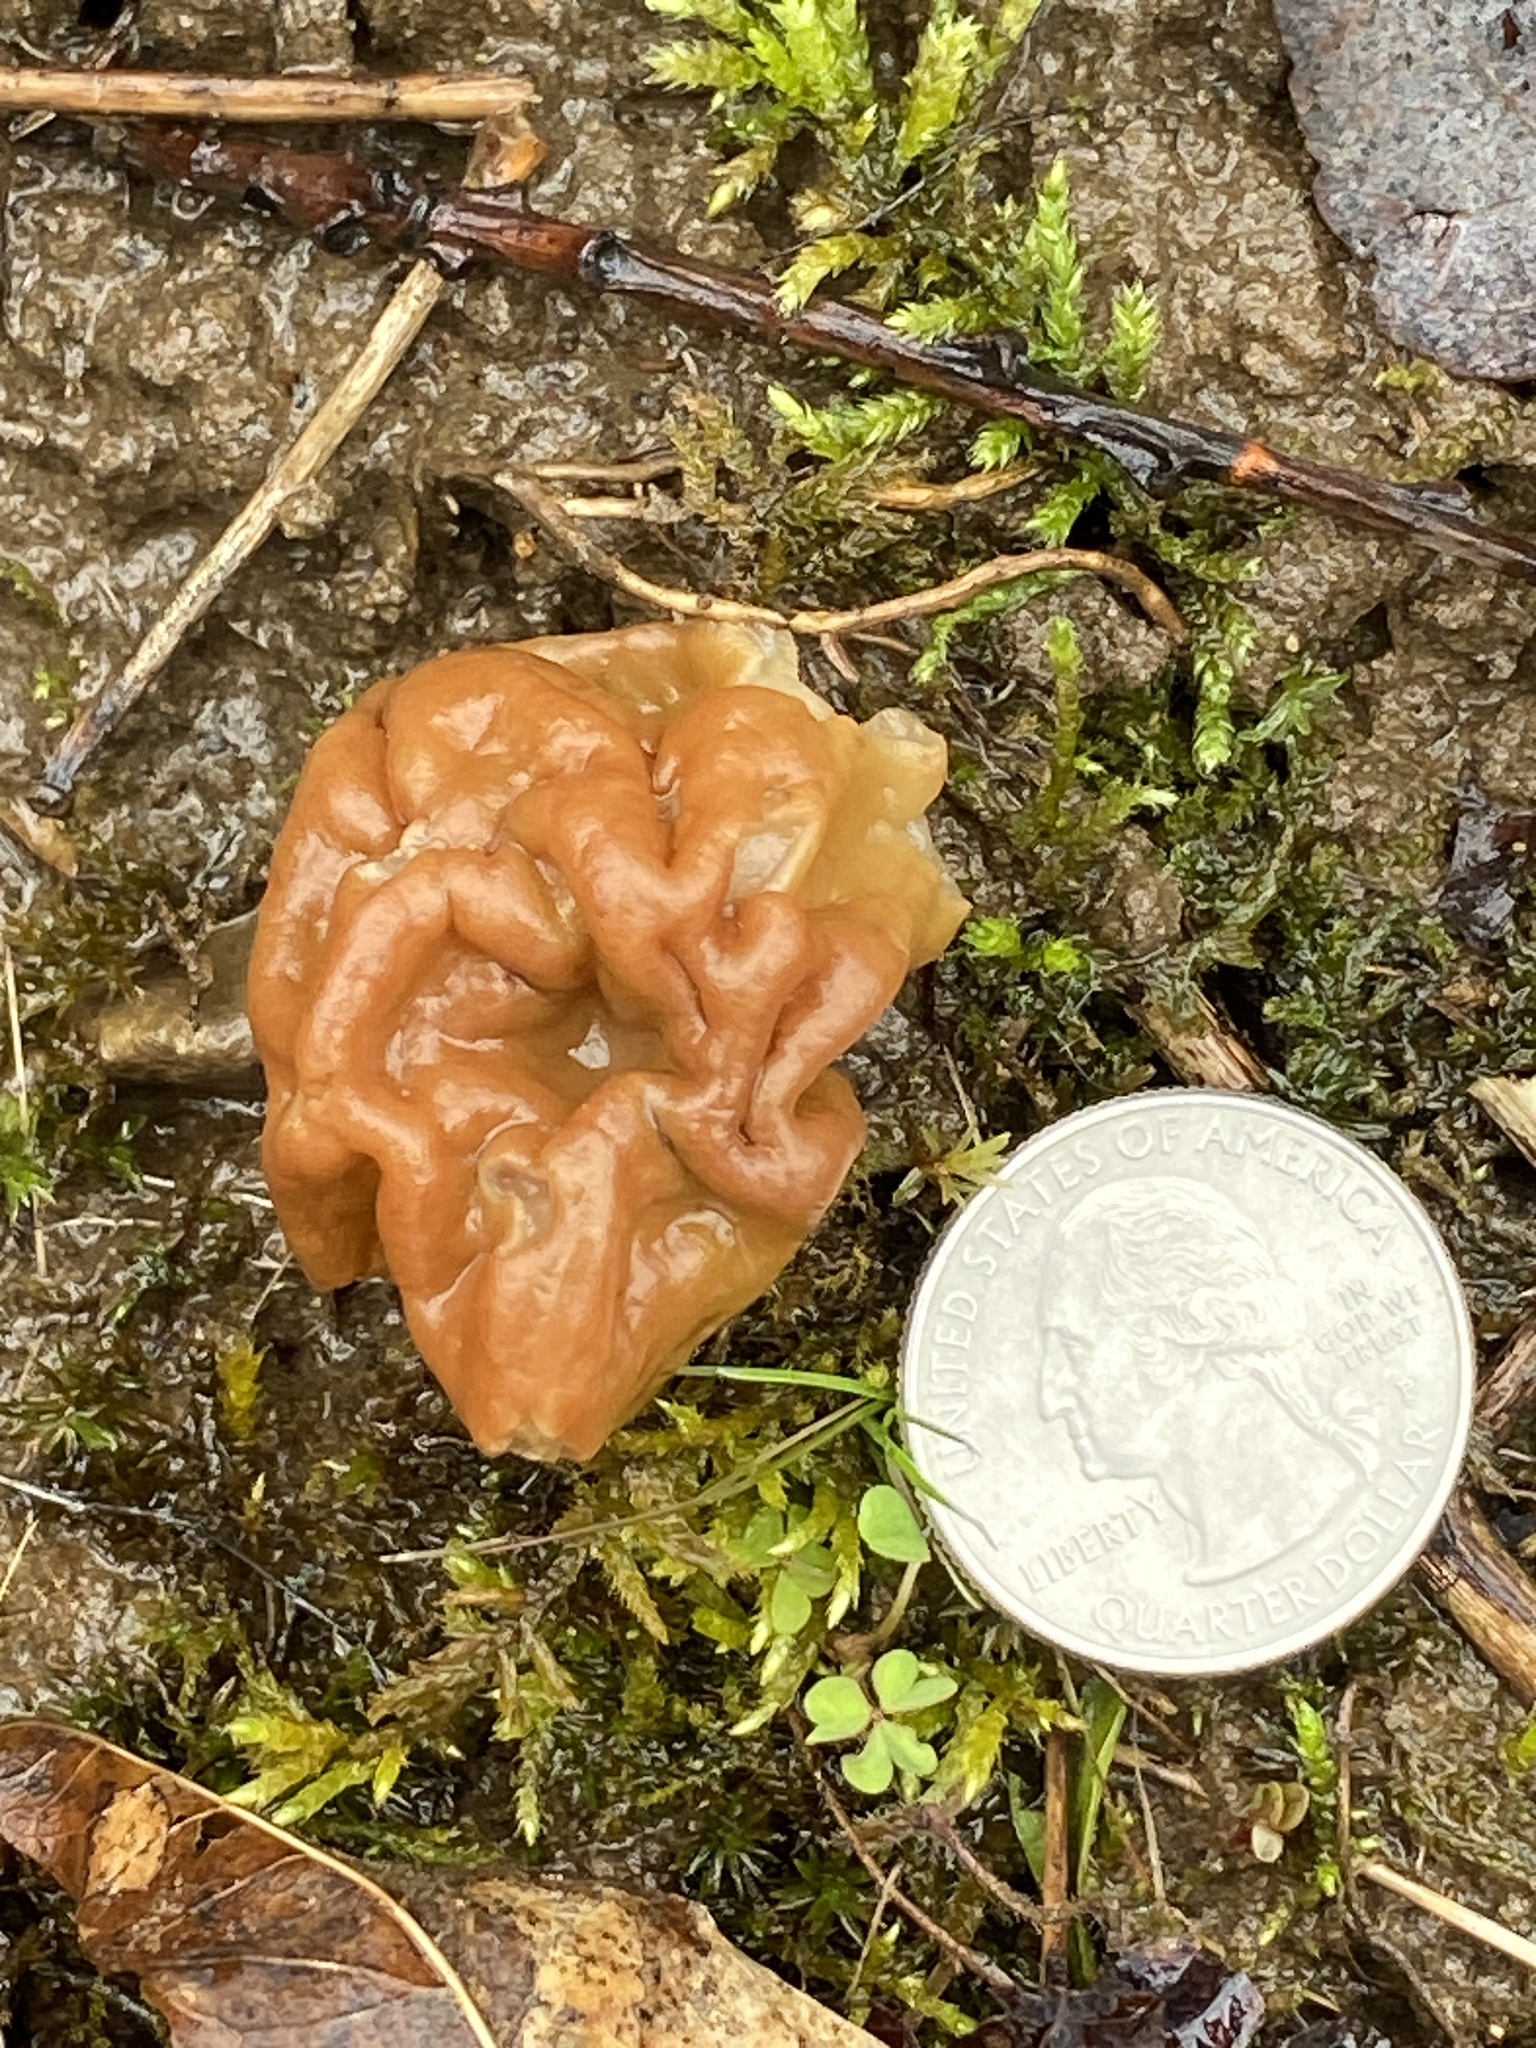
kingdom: Fungi
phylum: Ascomycota
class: Pezizomycetes
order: Pezizales
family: Discinaceae
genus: Gyromitra
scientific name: Gyromitra korfii
